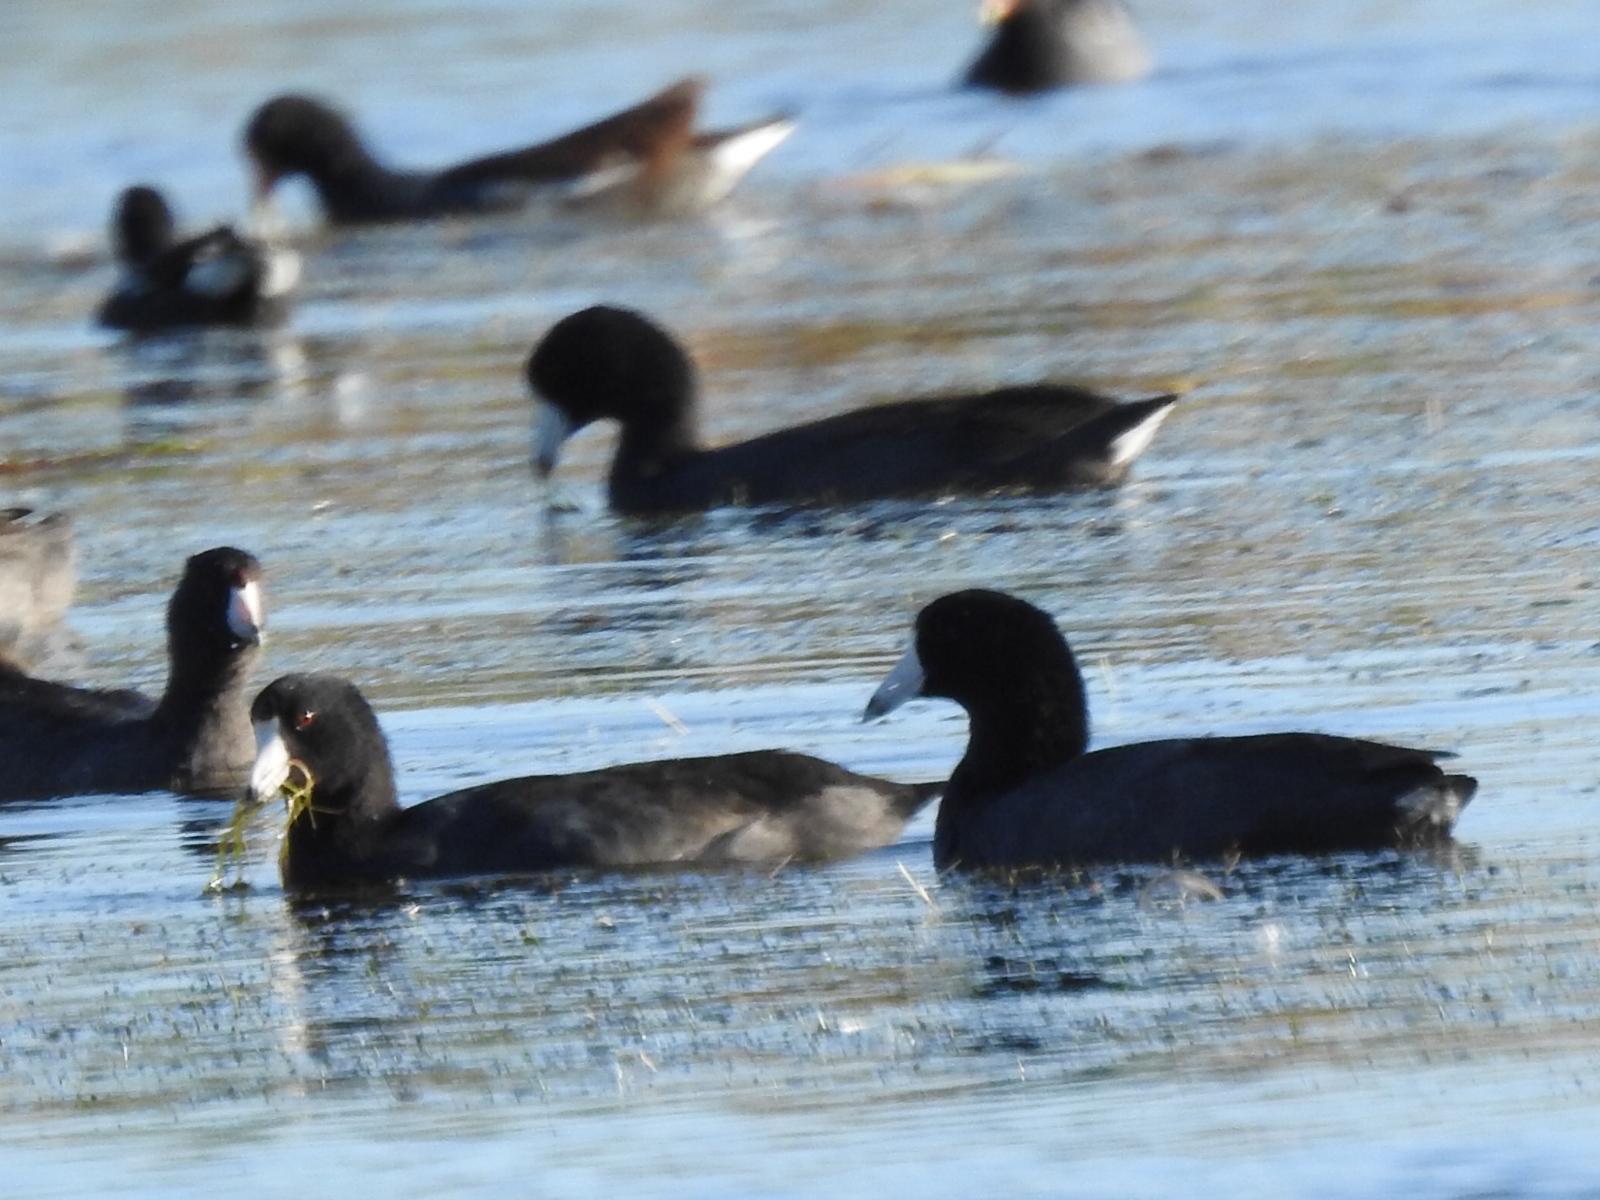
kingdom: Animalia
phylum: Chordata
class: Aves
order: Gruiformes
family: Rallidae
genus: Fulica
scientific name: Fulica americana
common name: American coot
